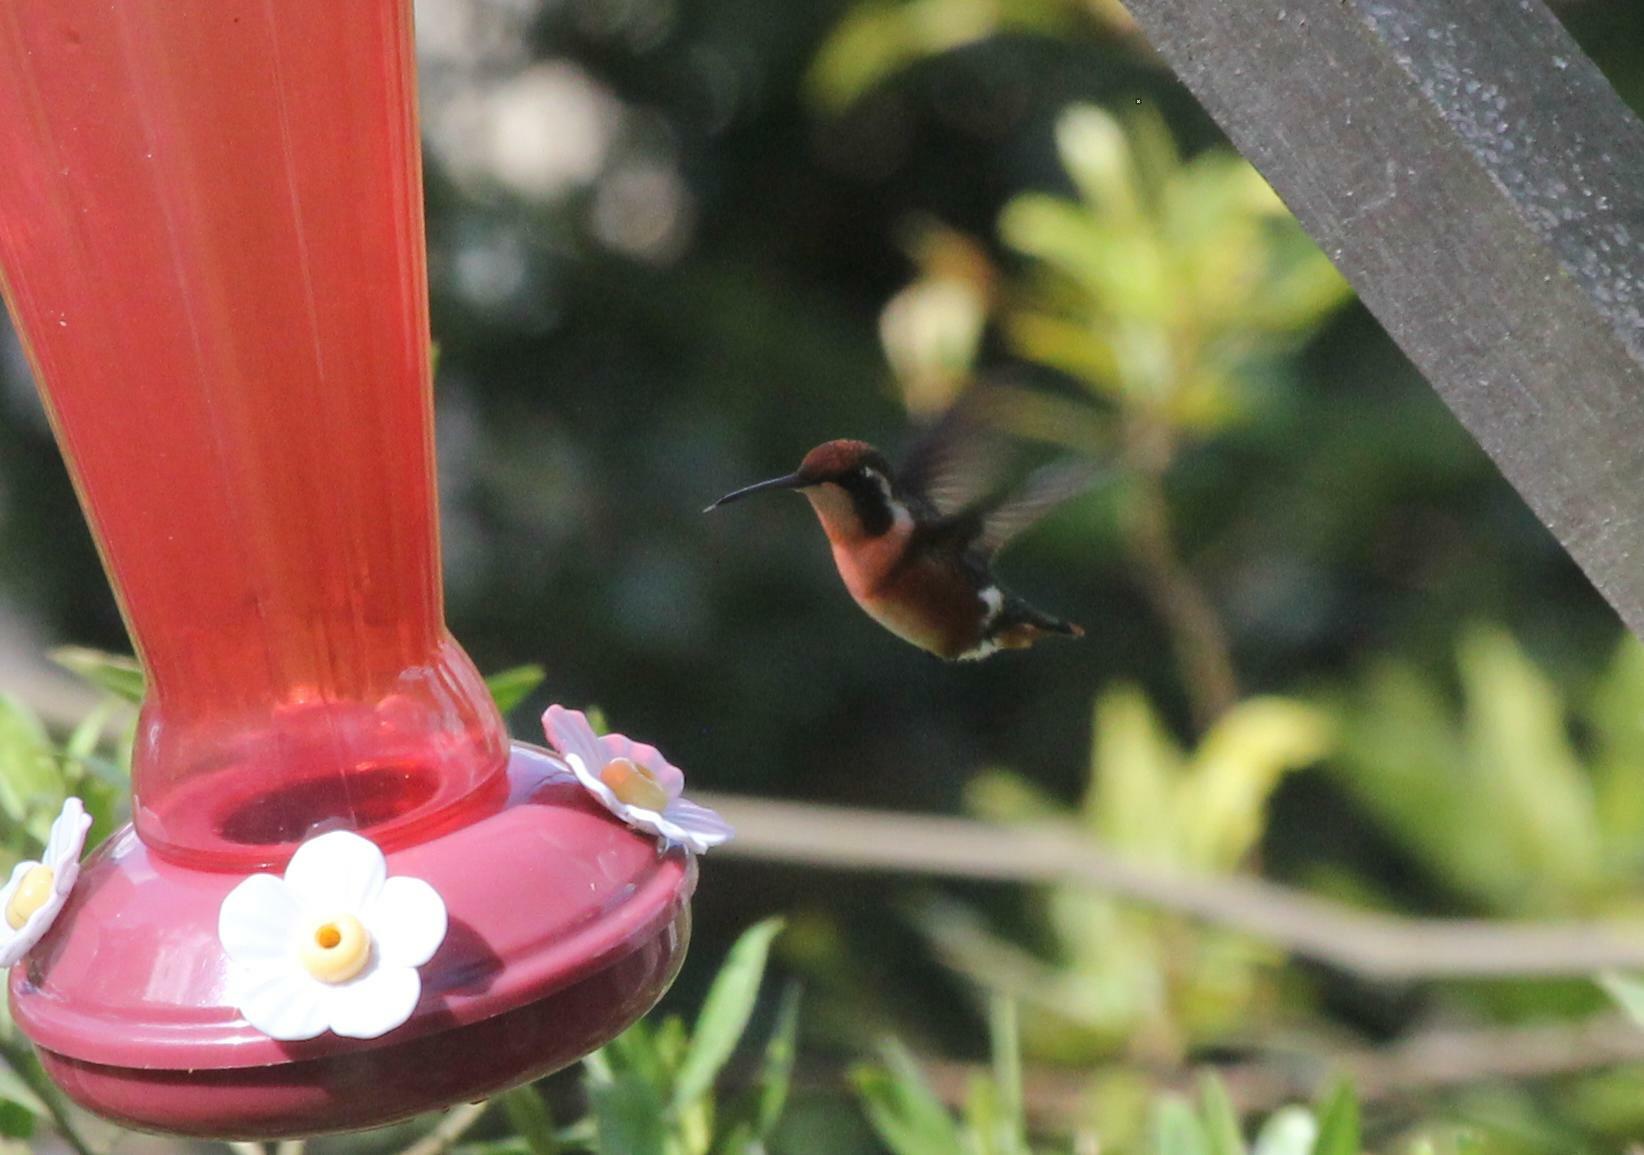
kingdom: Animalia
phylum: Chordata
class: Aves
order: Apodiformes
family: Trochilidae
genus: Chaetocercus
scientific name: Chaetocercus mulsant
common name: White-bellied woodstar
